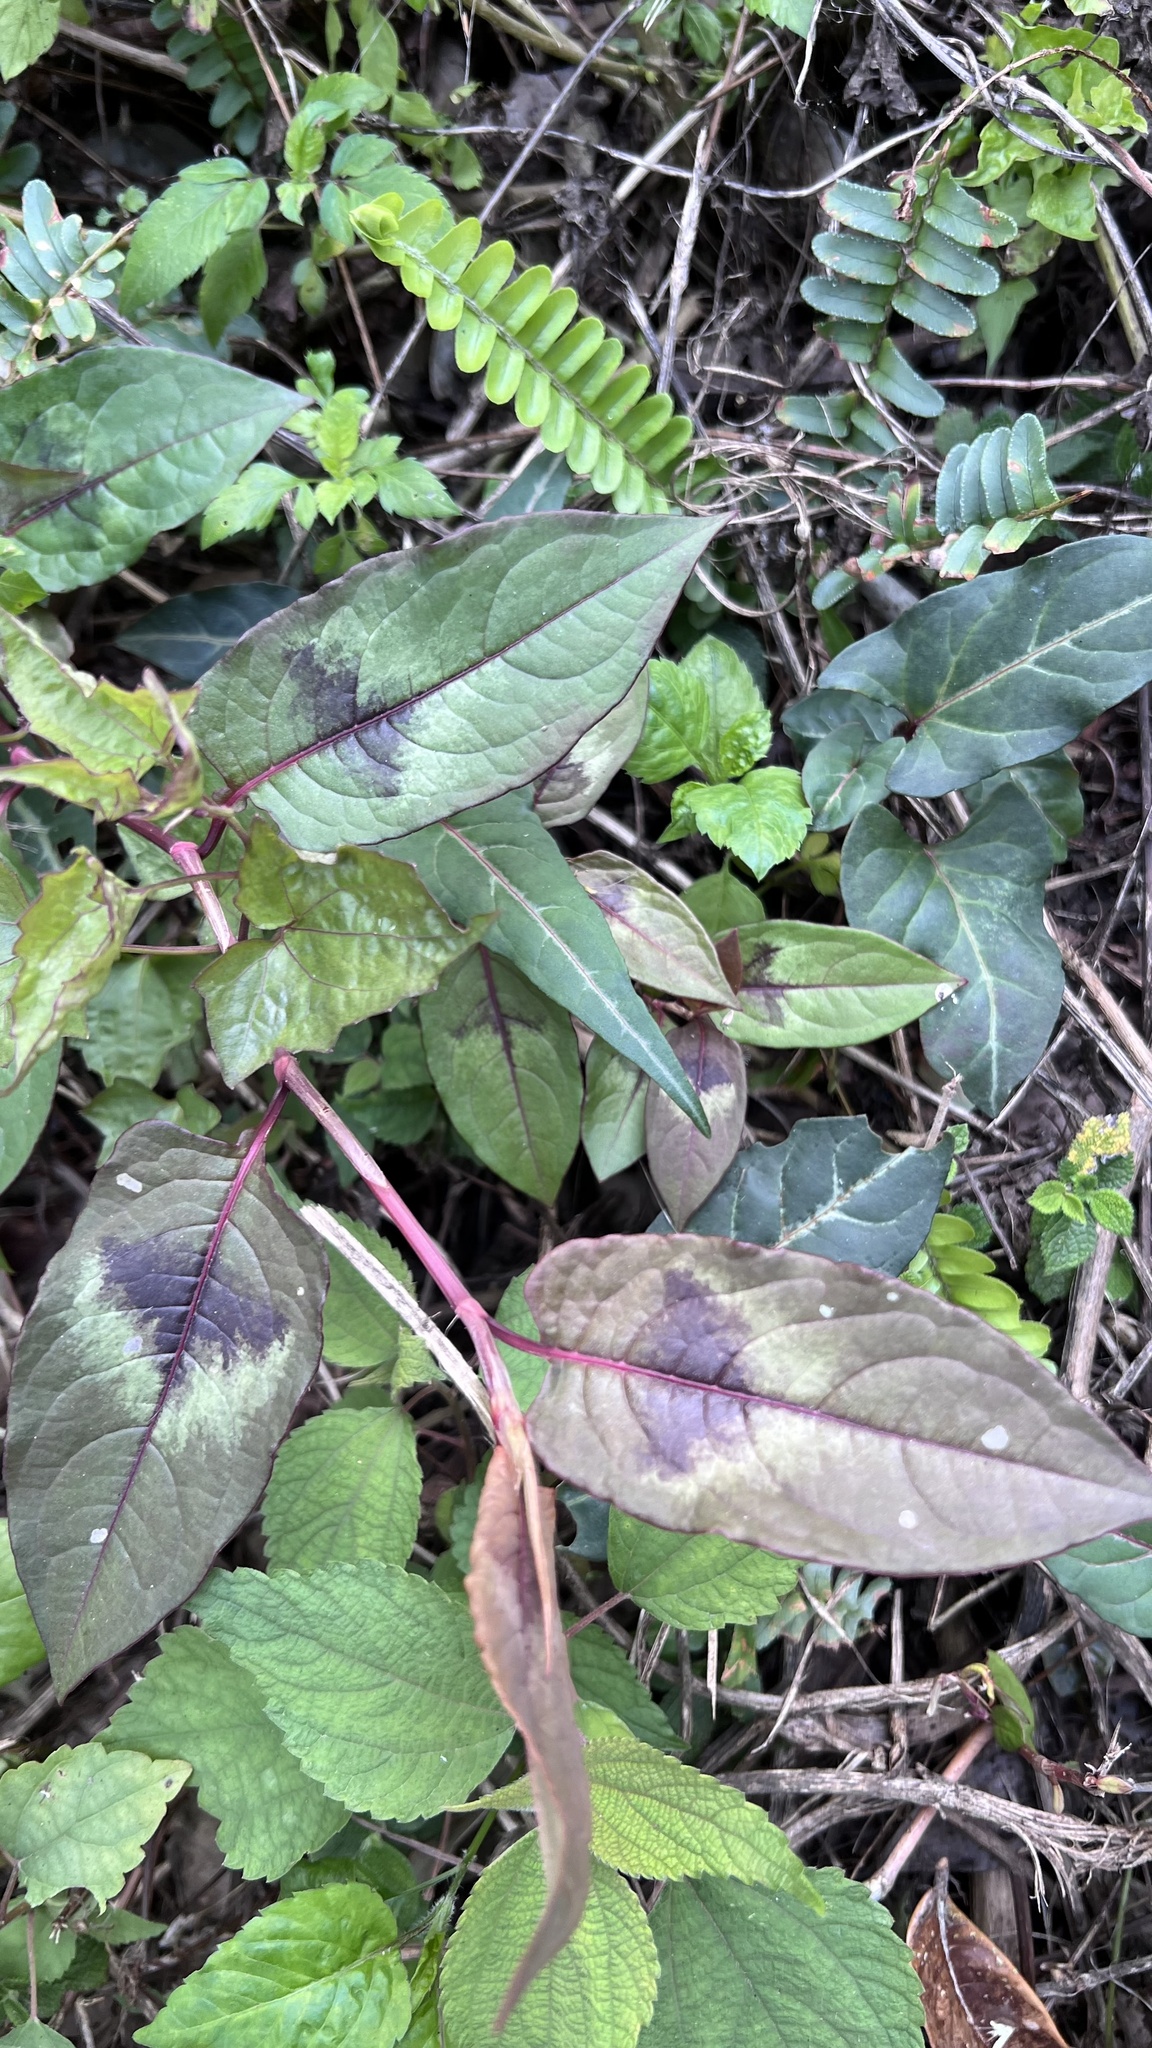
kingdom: Plantae
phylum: Tracheophyta
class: Magnoliopsida
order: Caryophyllales
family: Polygonaceae
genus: Persicaria
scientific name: Persicaria chinensis
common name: Chinese knotweed
